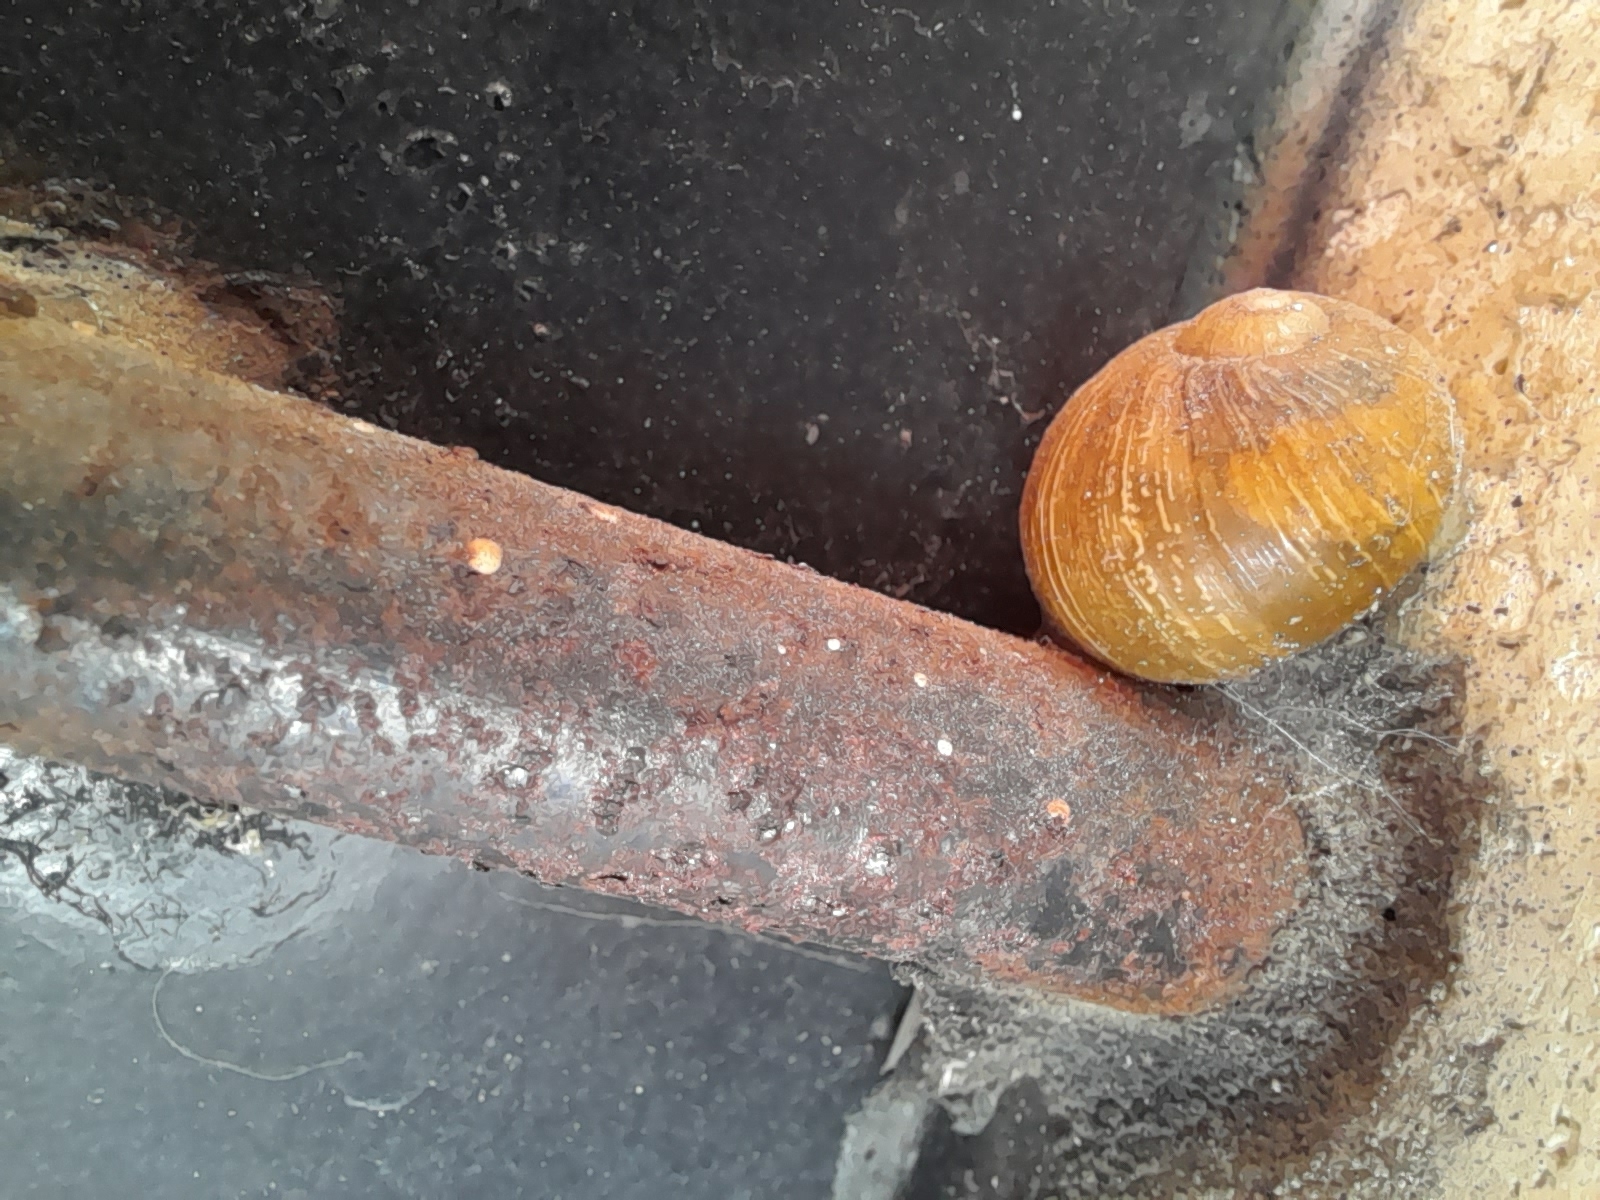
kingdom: Animalia
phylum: Mollusca
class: Gastropoda
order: Stylommatophora
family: Helicidae
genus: Cantareus
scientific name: Cantareus apertus
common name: Green gardensnail
